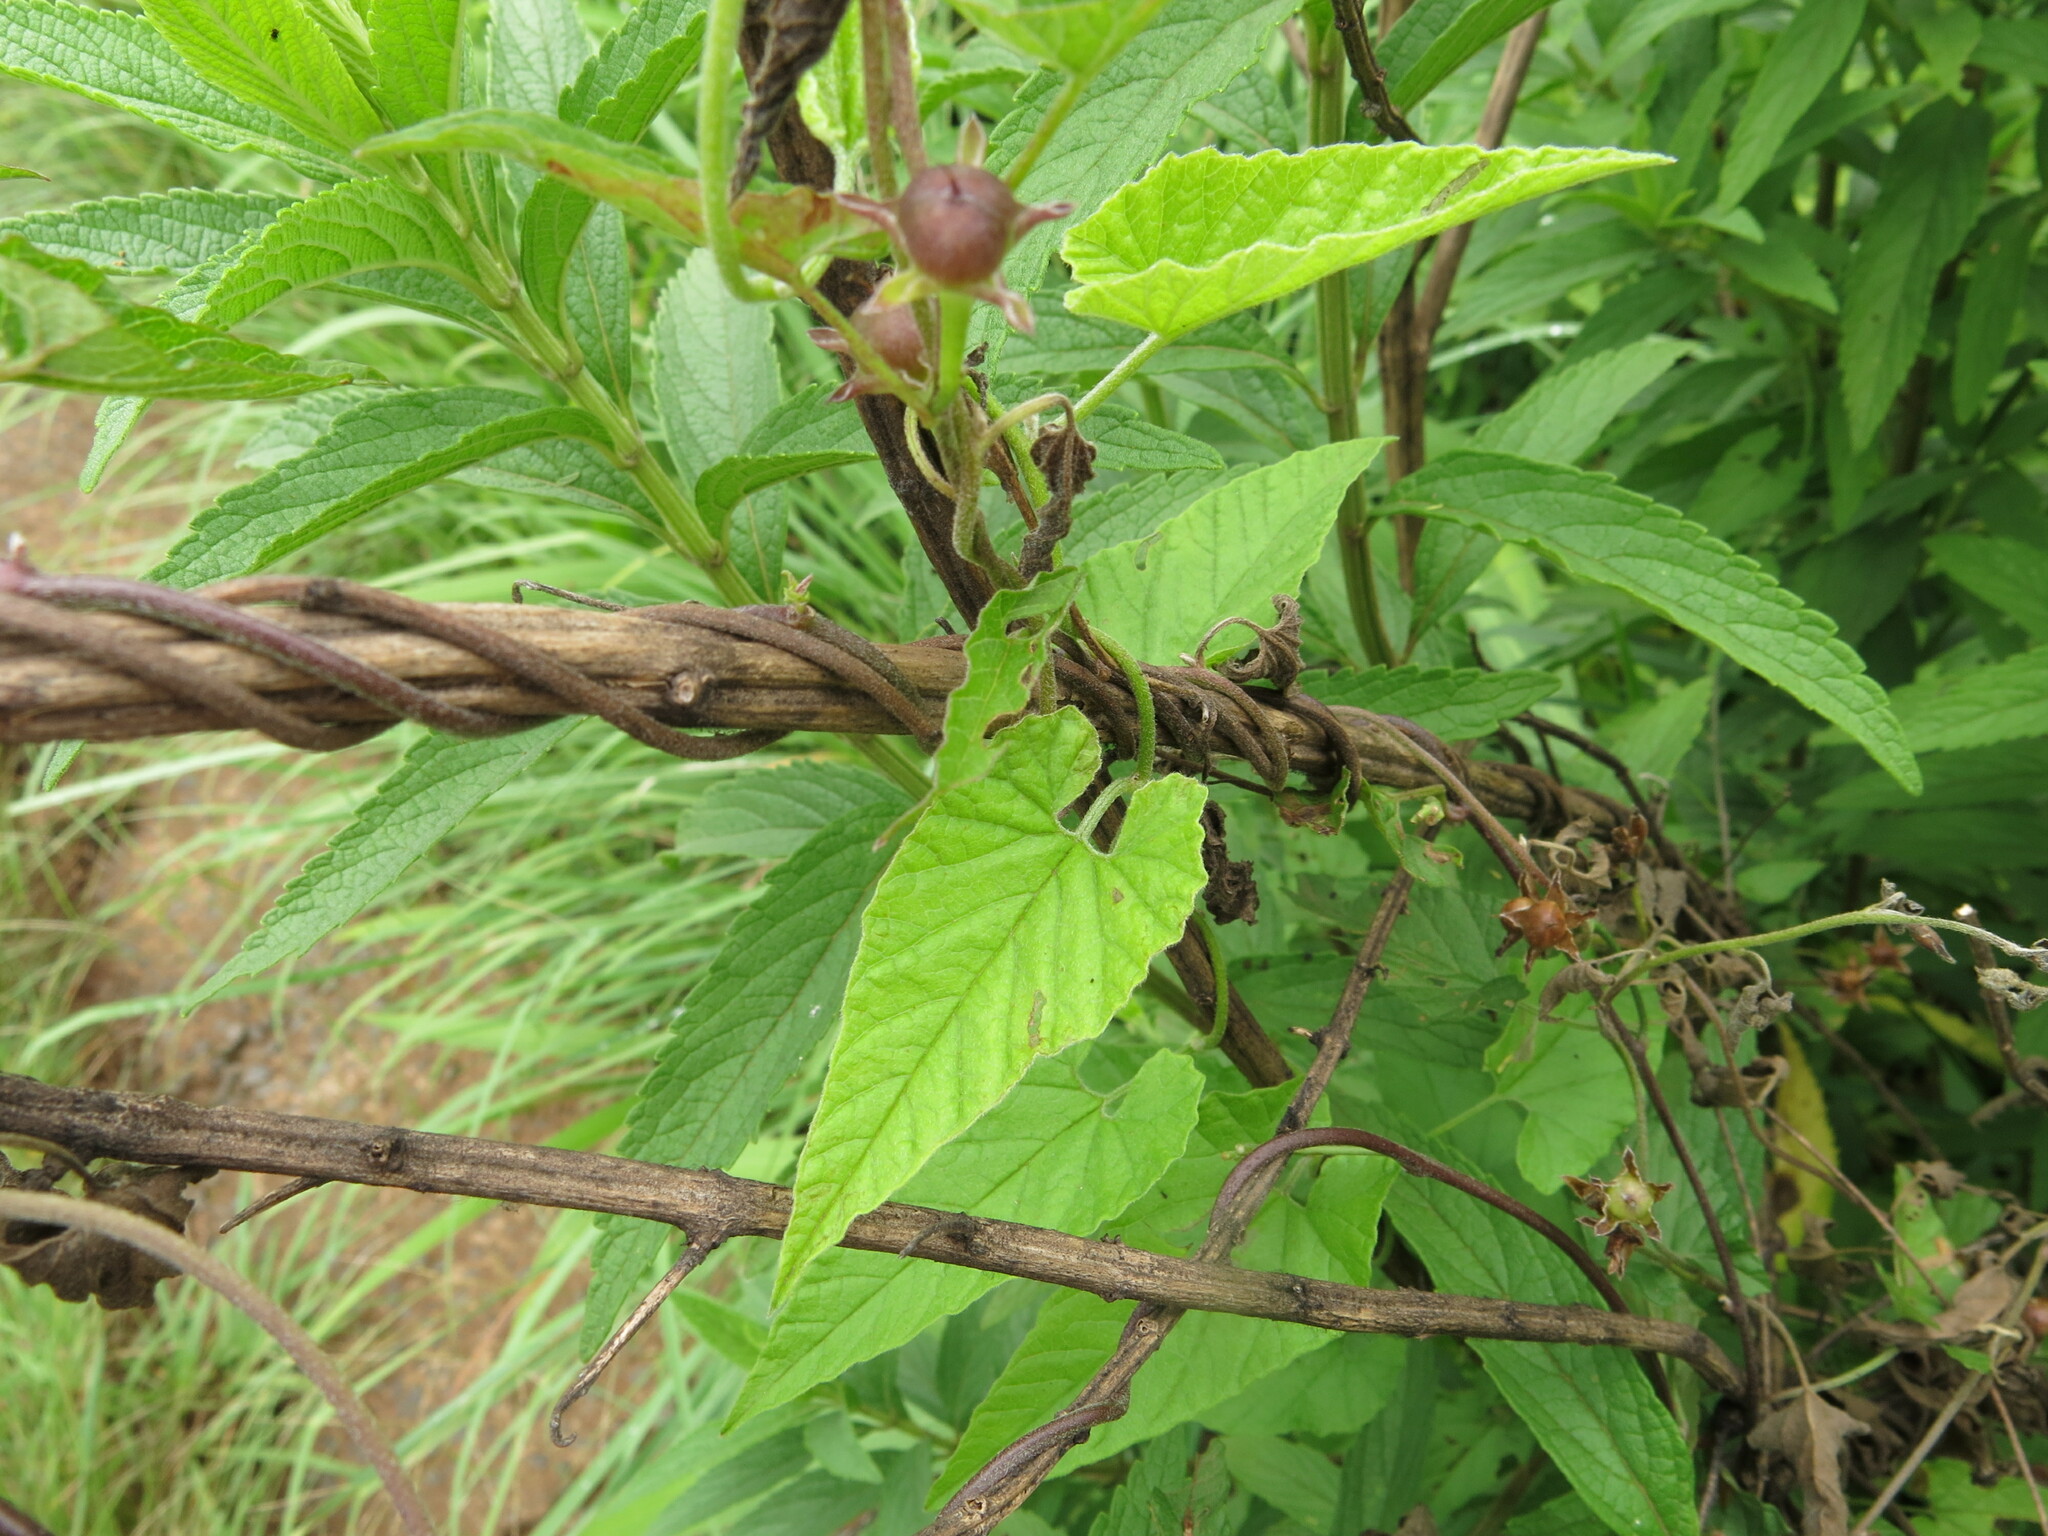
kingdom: Plantae
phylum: Tracheophyta
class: Magnoliopsida
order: Solanales
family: Convolvulaceae
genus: Convolvulus
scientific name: Convolvulus farinosus
